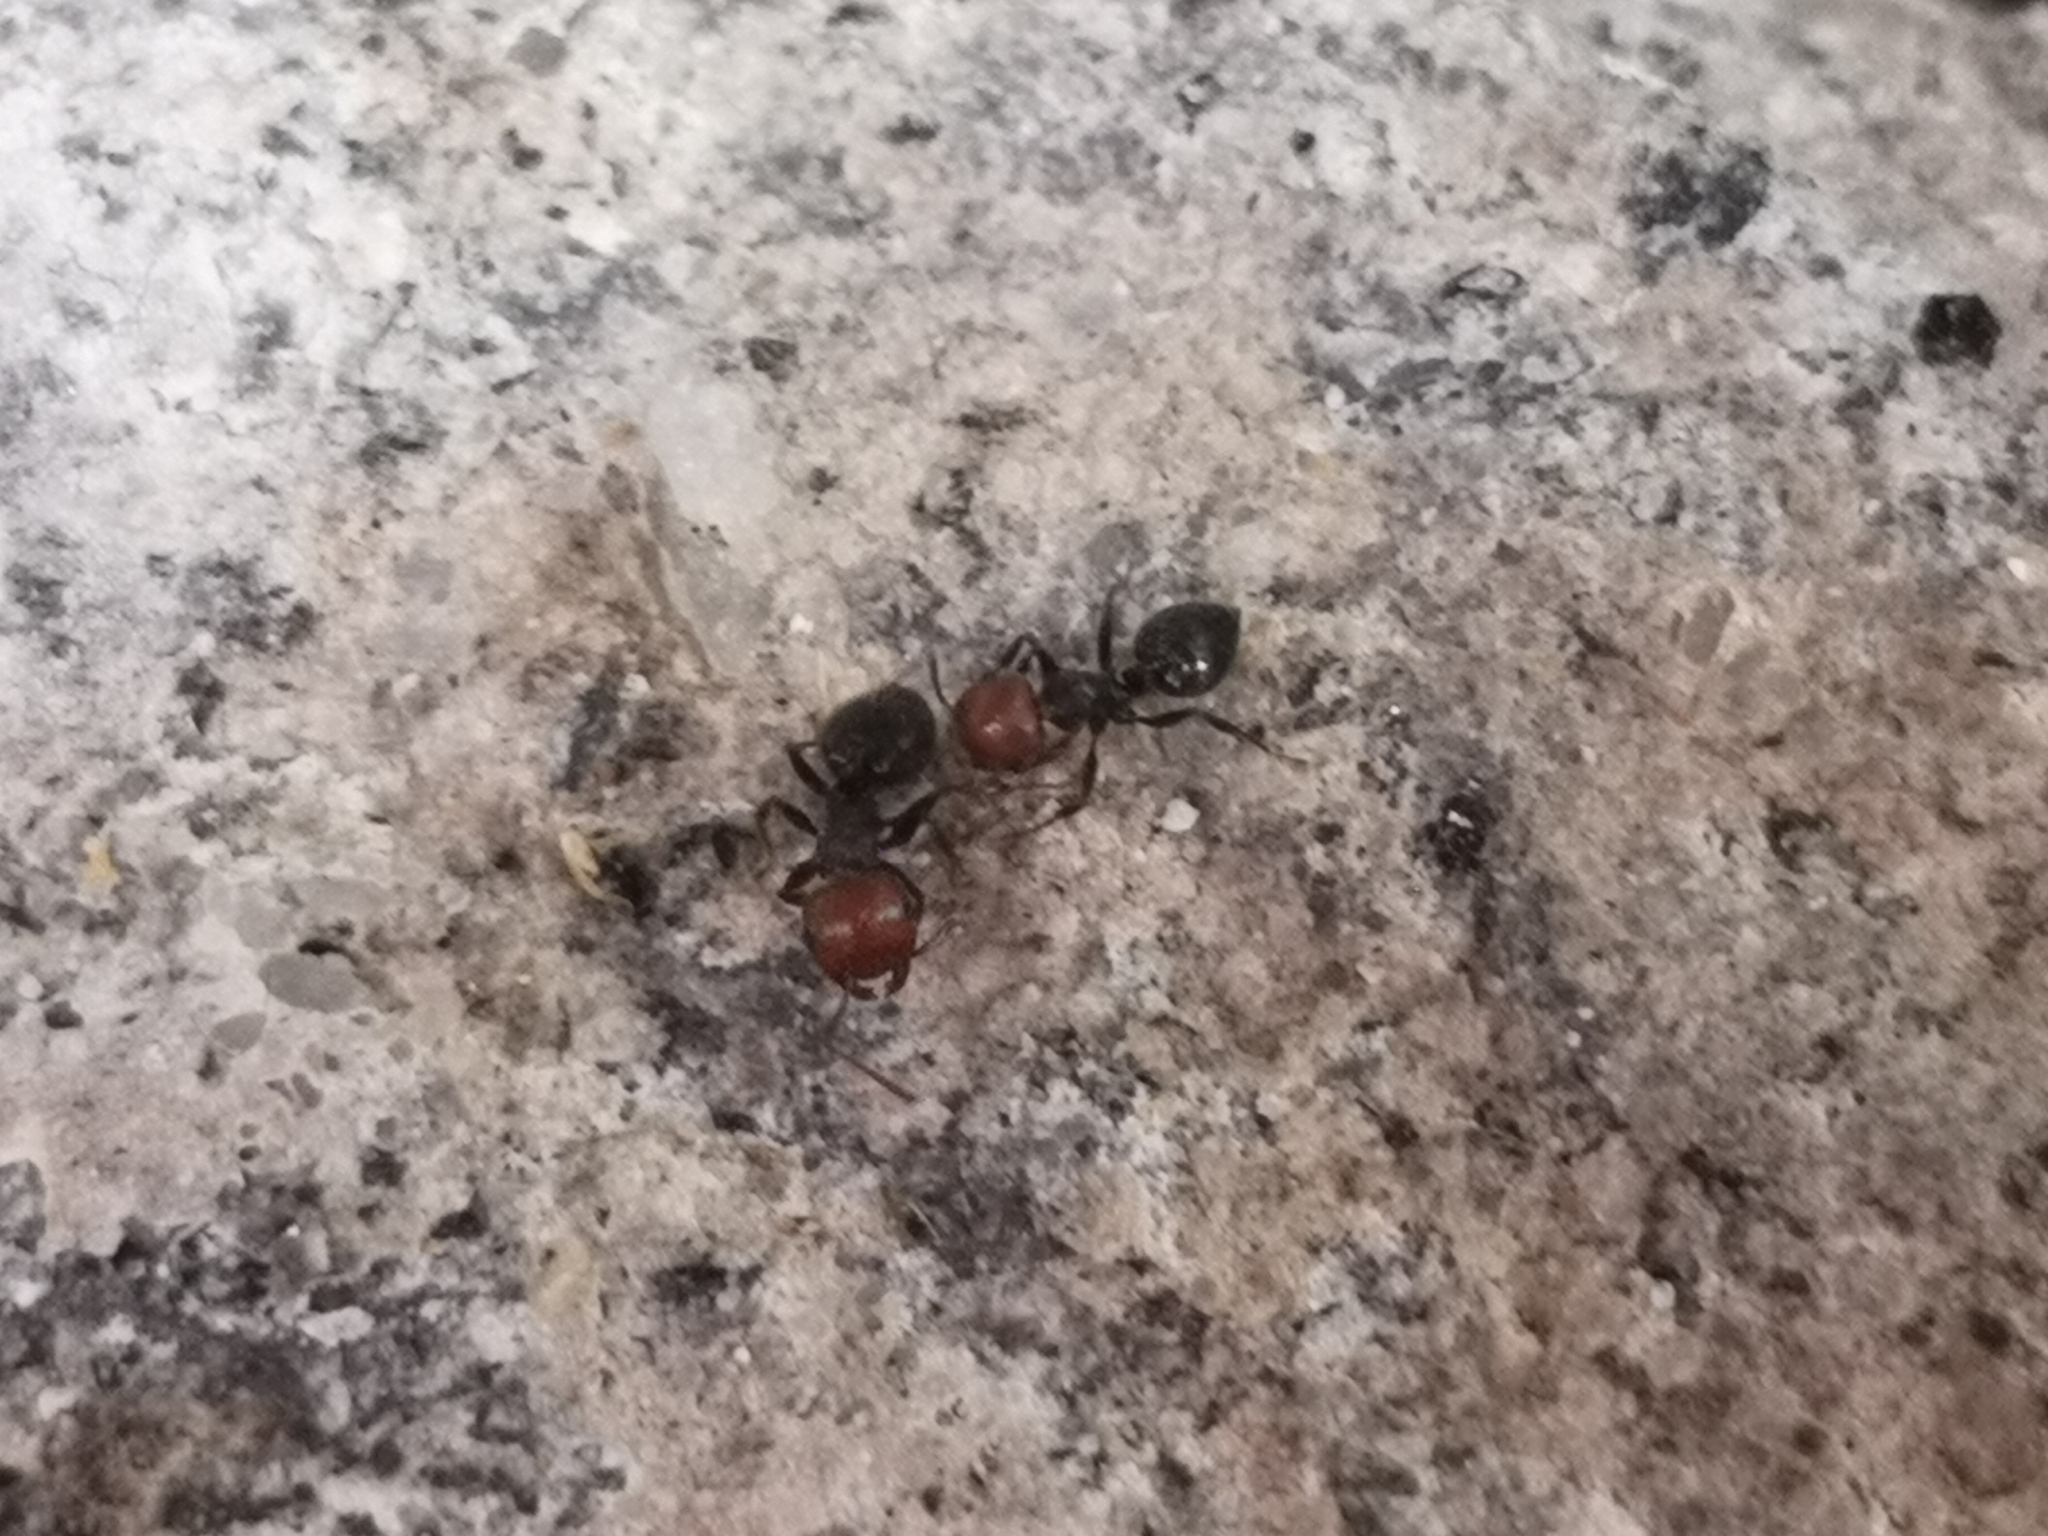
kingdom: Animalia
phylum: Arthropoda
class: Insecta
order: Hymenoptera
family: Formicidae
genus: Crematogaster
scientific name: Crematogaster scutellaris
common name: Fourmi du liège
